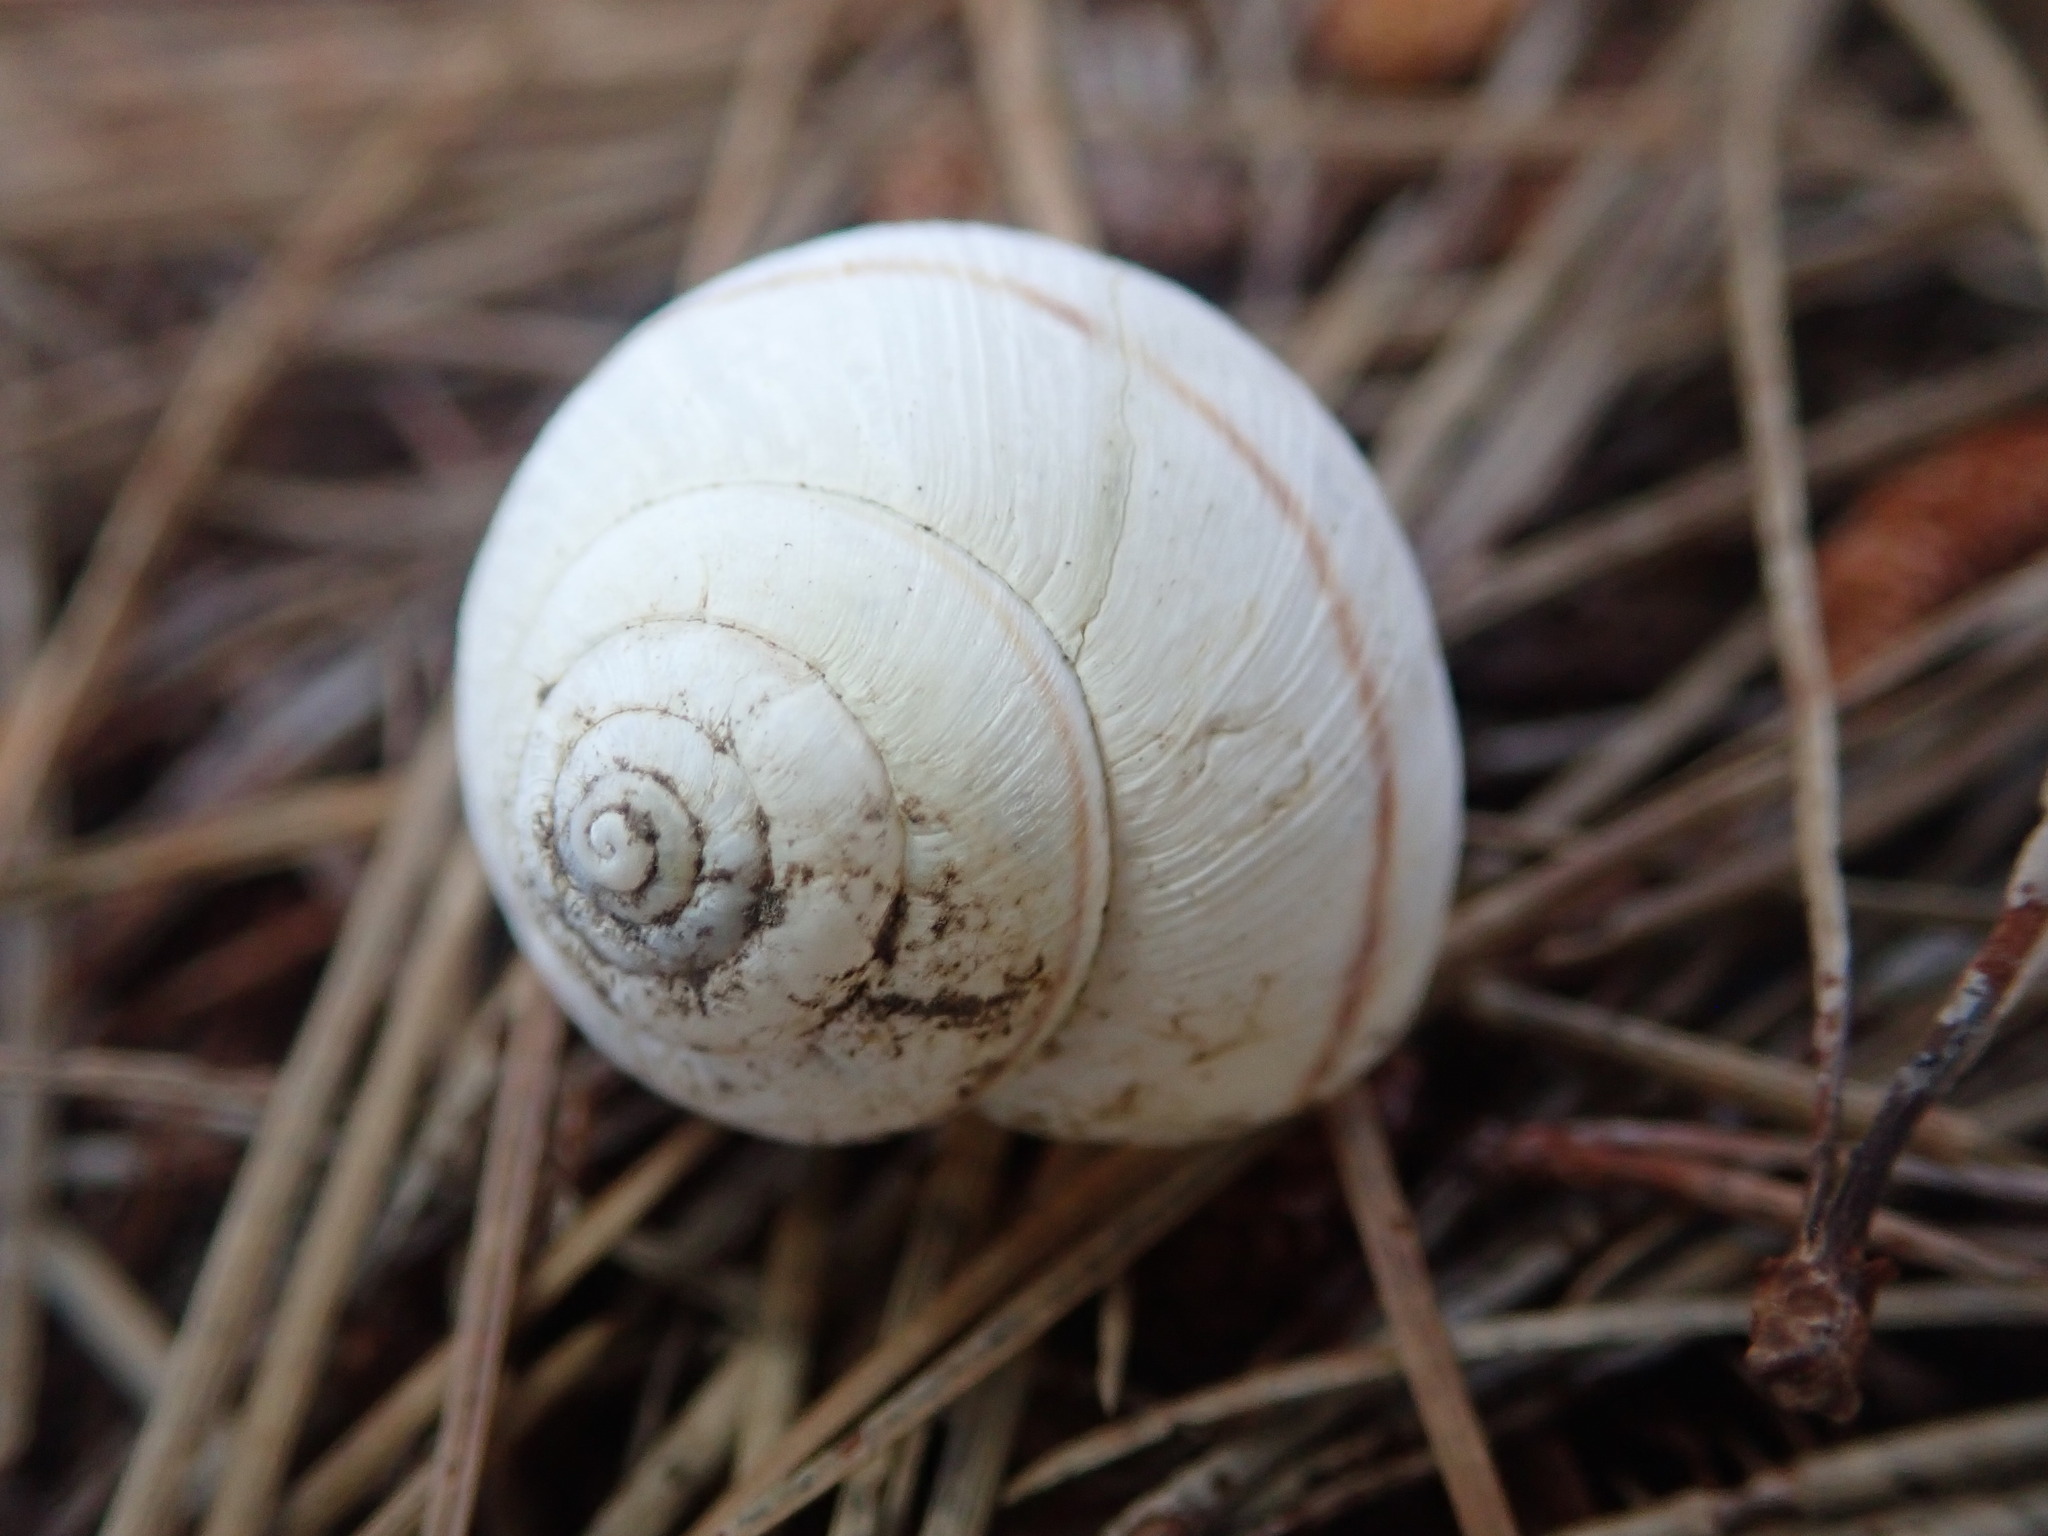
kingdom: Animalia
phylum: Mollusca
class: Gastropoda
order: Stylommatophora
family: Xanthonychidae
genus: Helminthoglypta
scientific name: Helminthoglypta nickliniana
